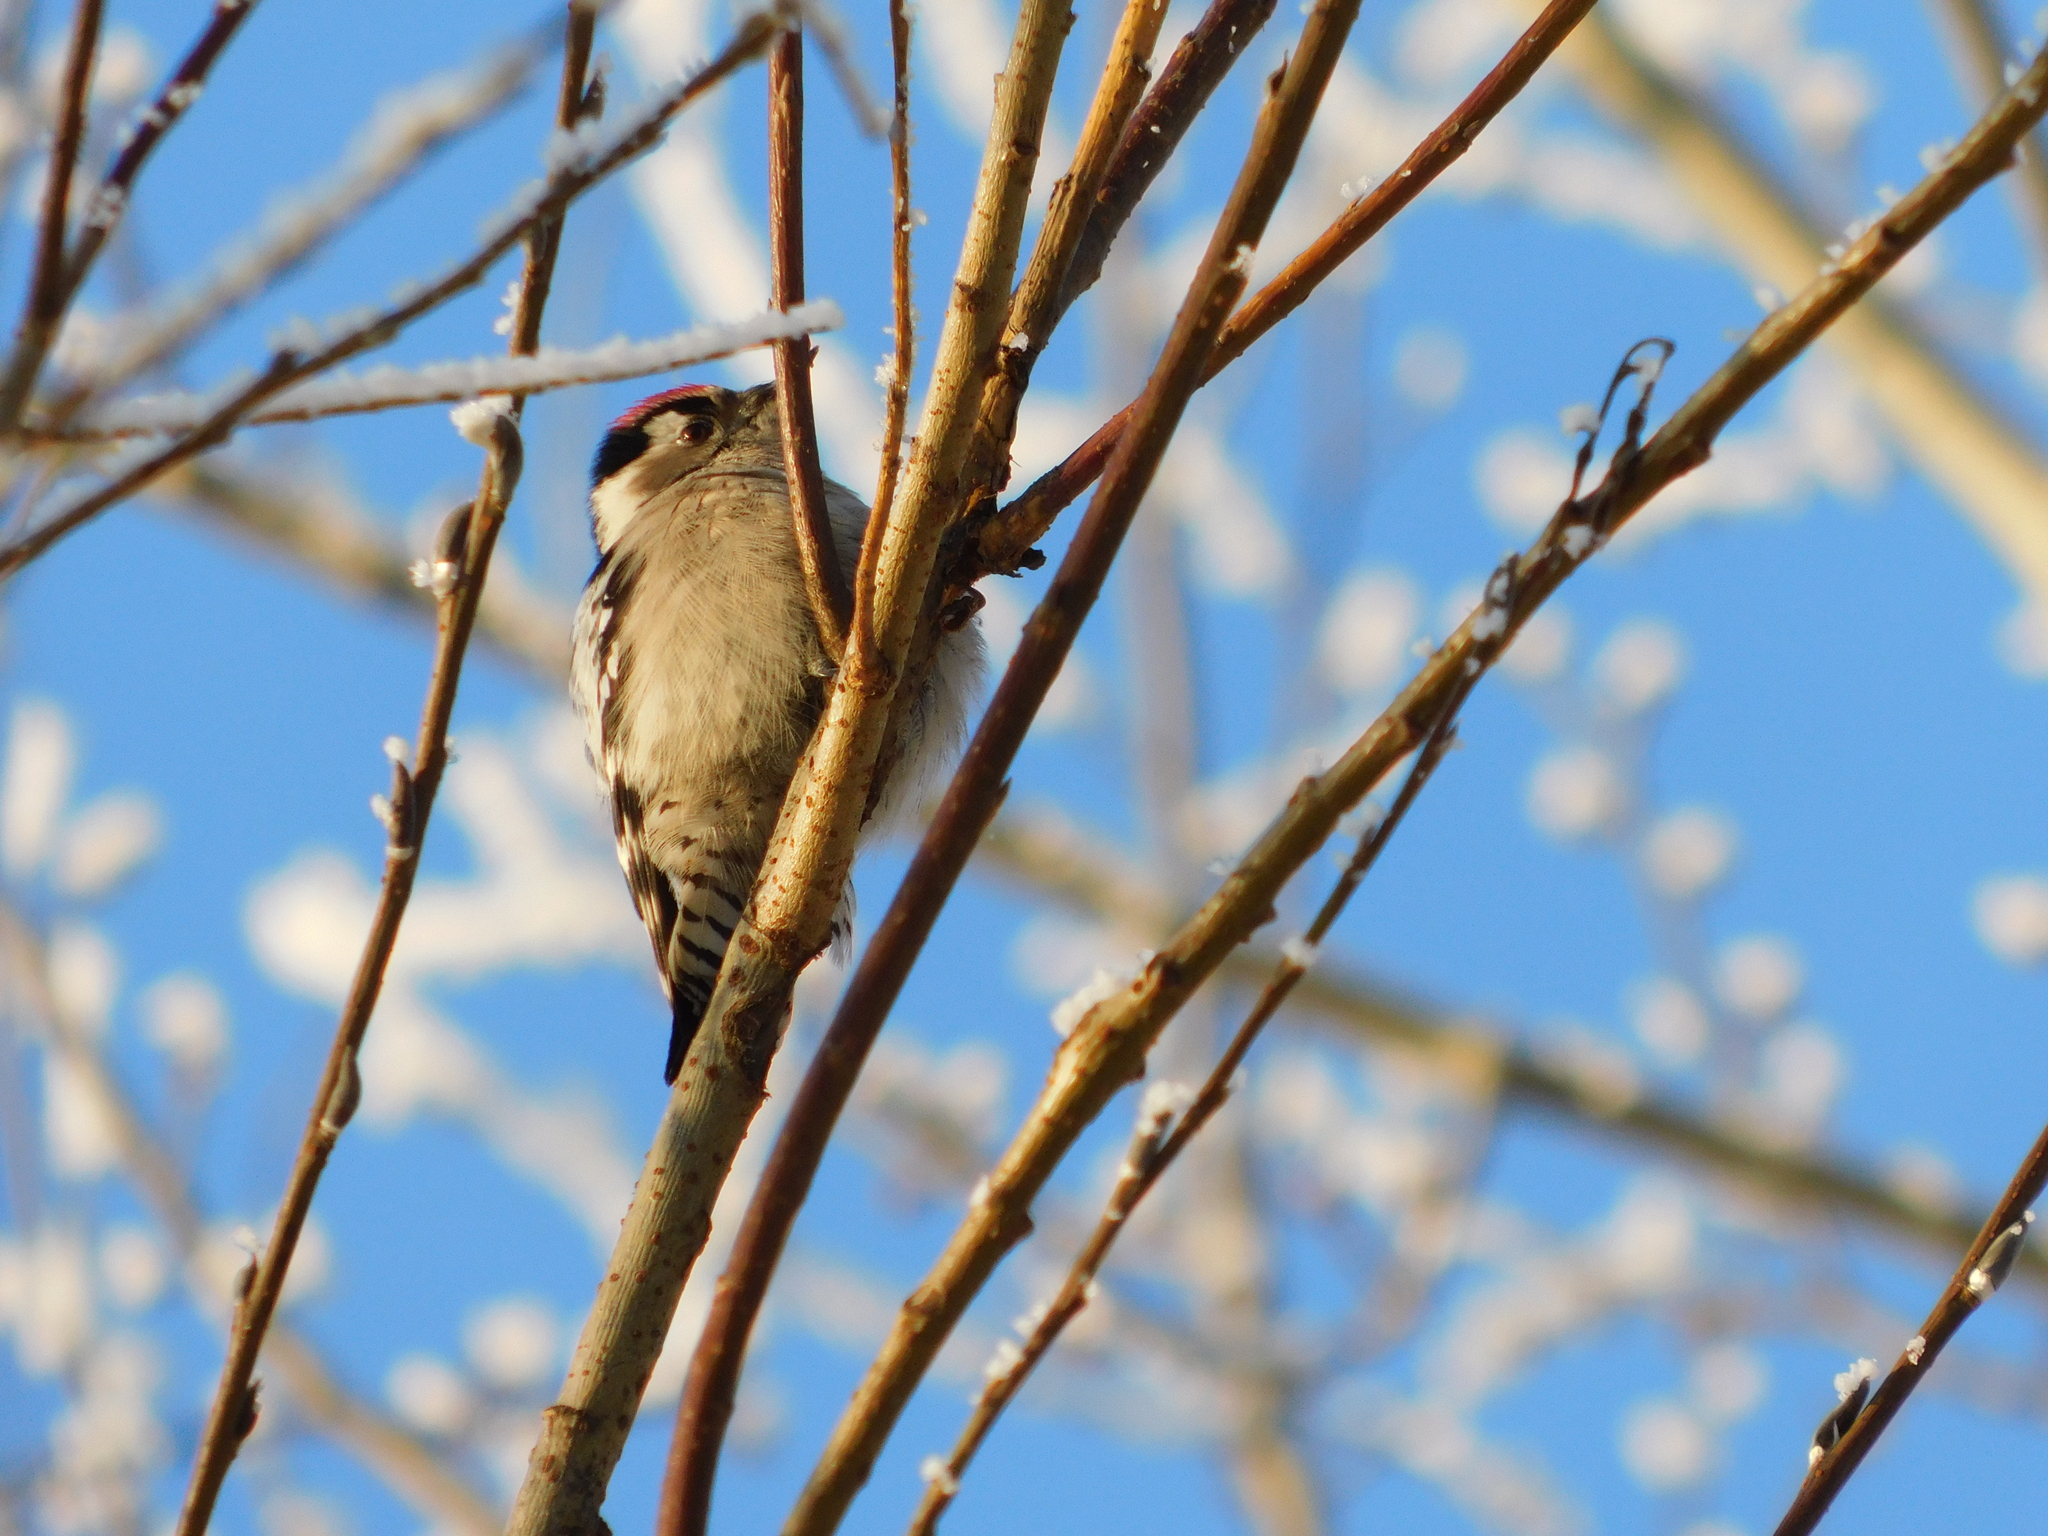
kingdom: Animalia
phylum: Chordata
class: Aves
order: Piciformes
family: Picidae
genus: Dryobates
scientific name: Dryobates minor
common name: Lesser spotted woodpecker
